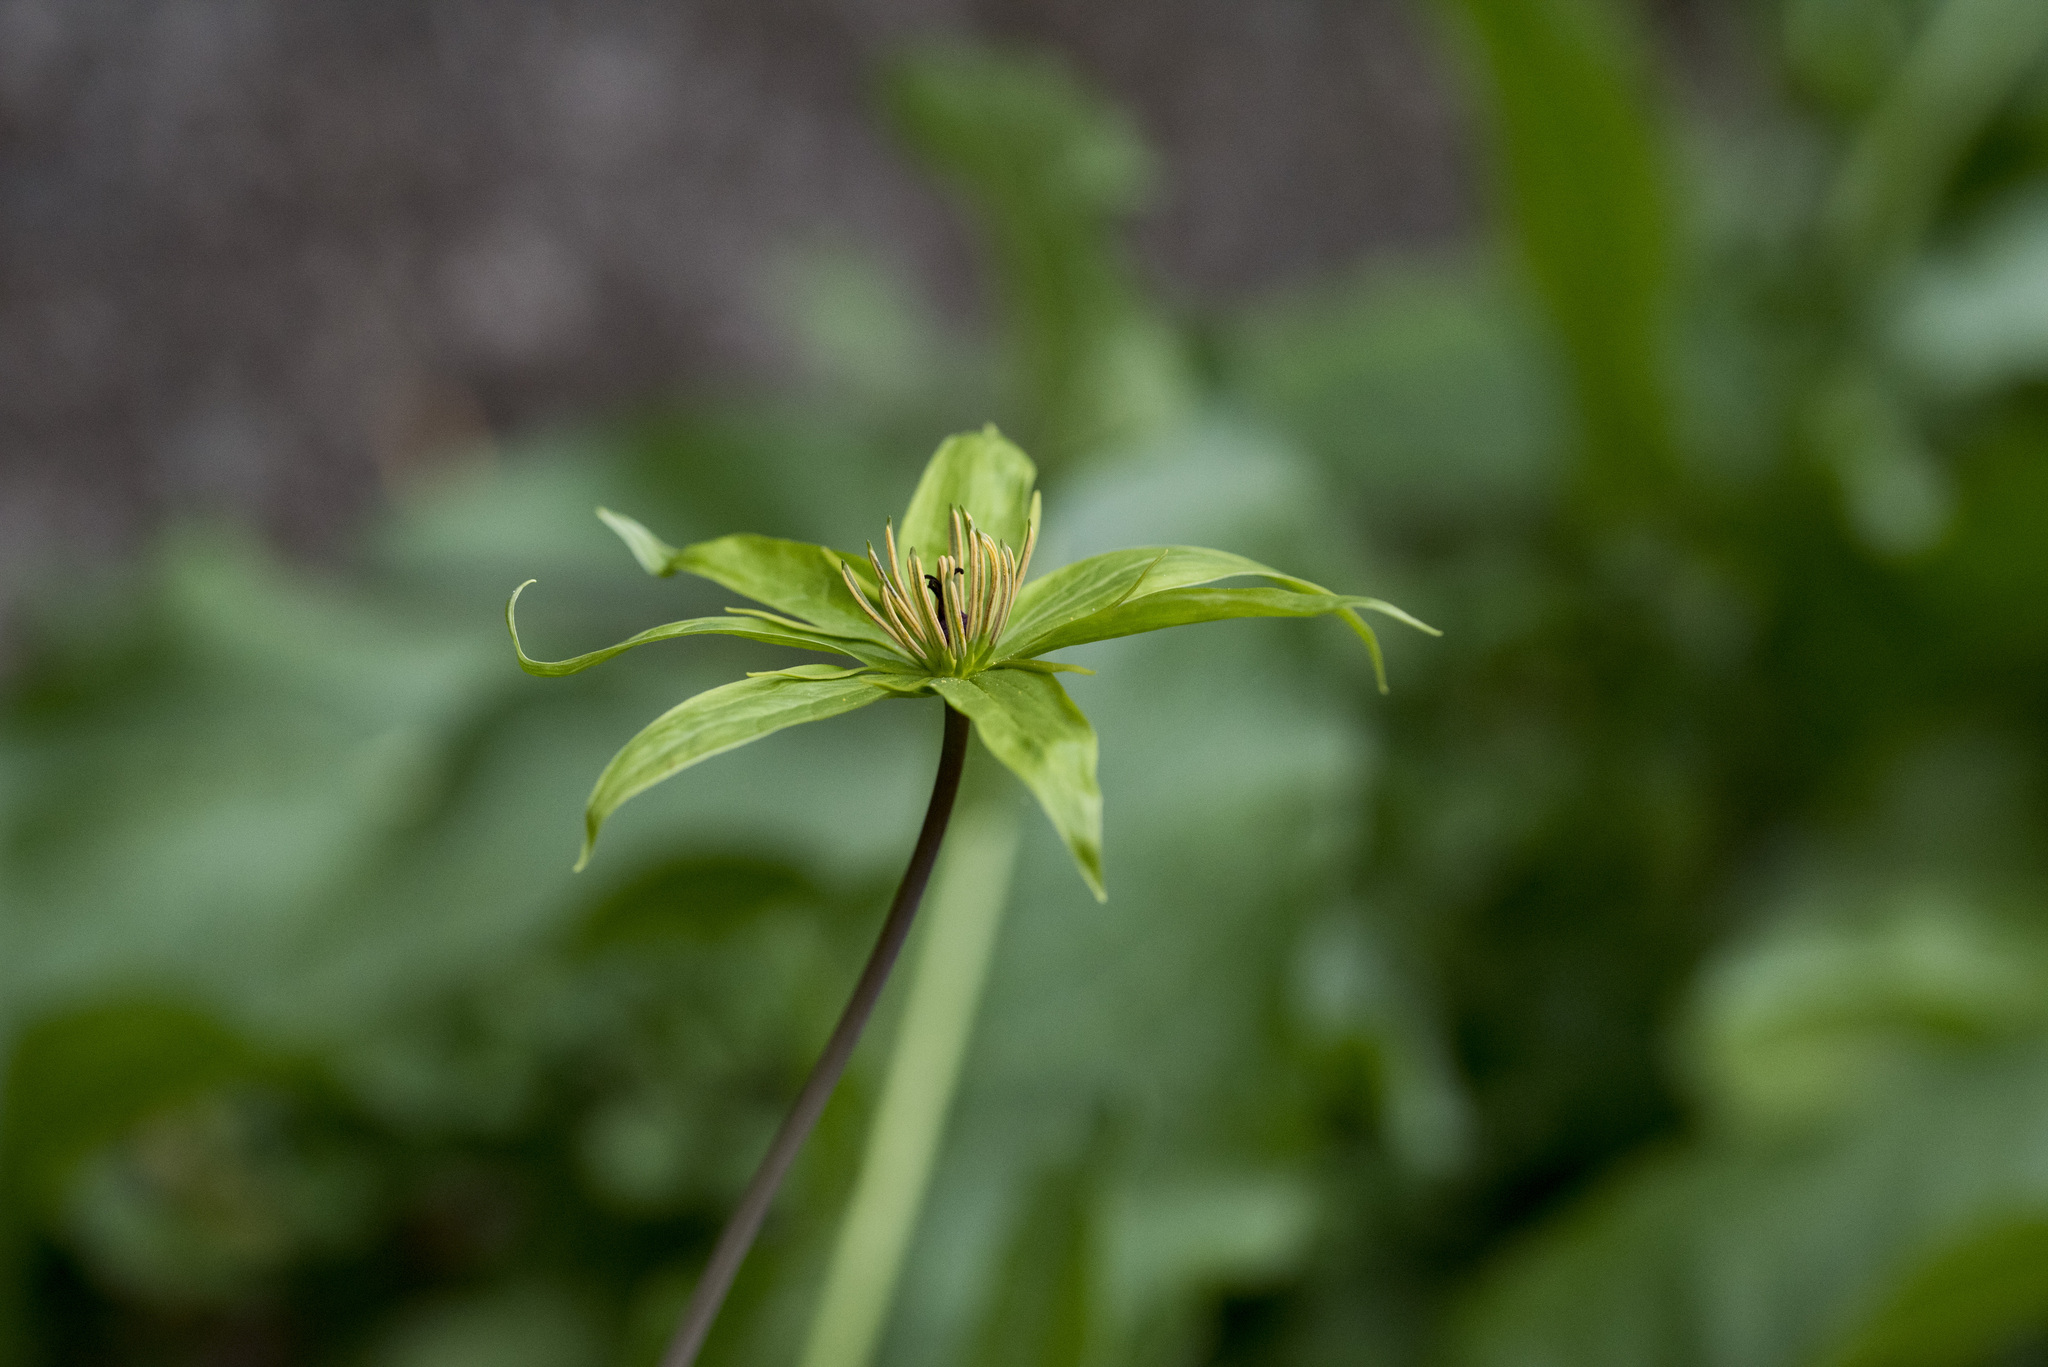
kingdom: Plantae
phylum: Tracheophyta
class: Liliopsida
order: Liliales
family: Melanthiaceae
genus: Paris
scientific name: Paris polyphylla
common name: Love apple
